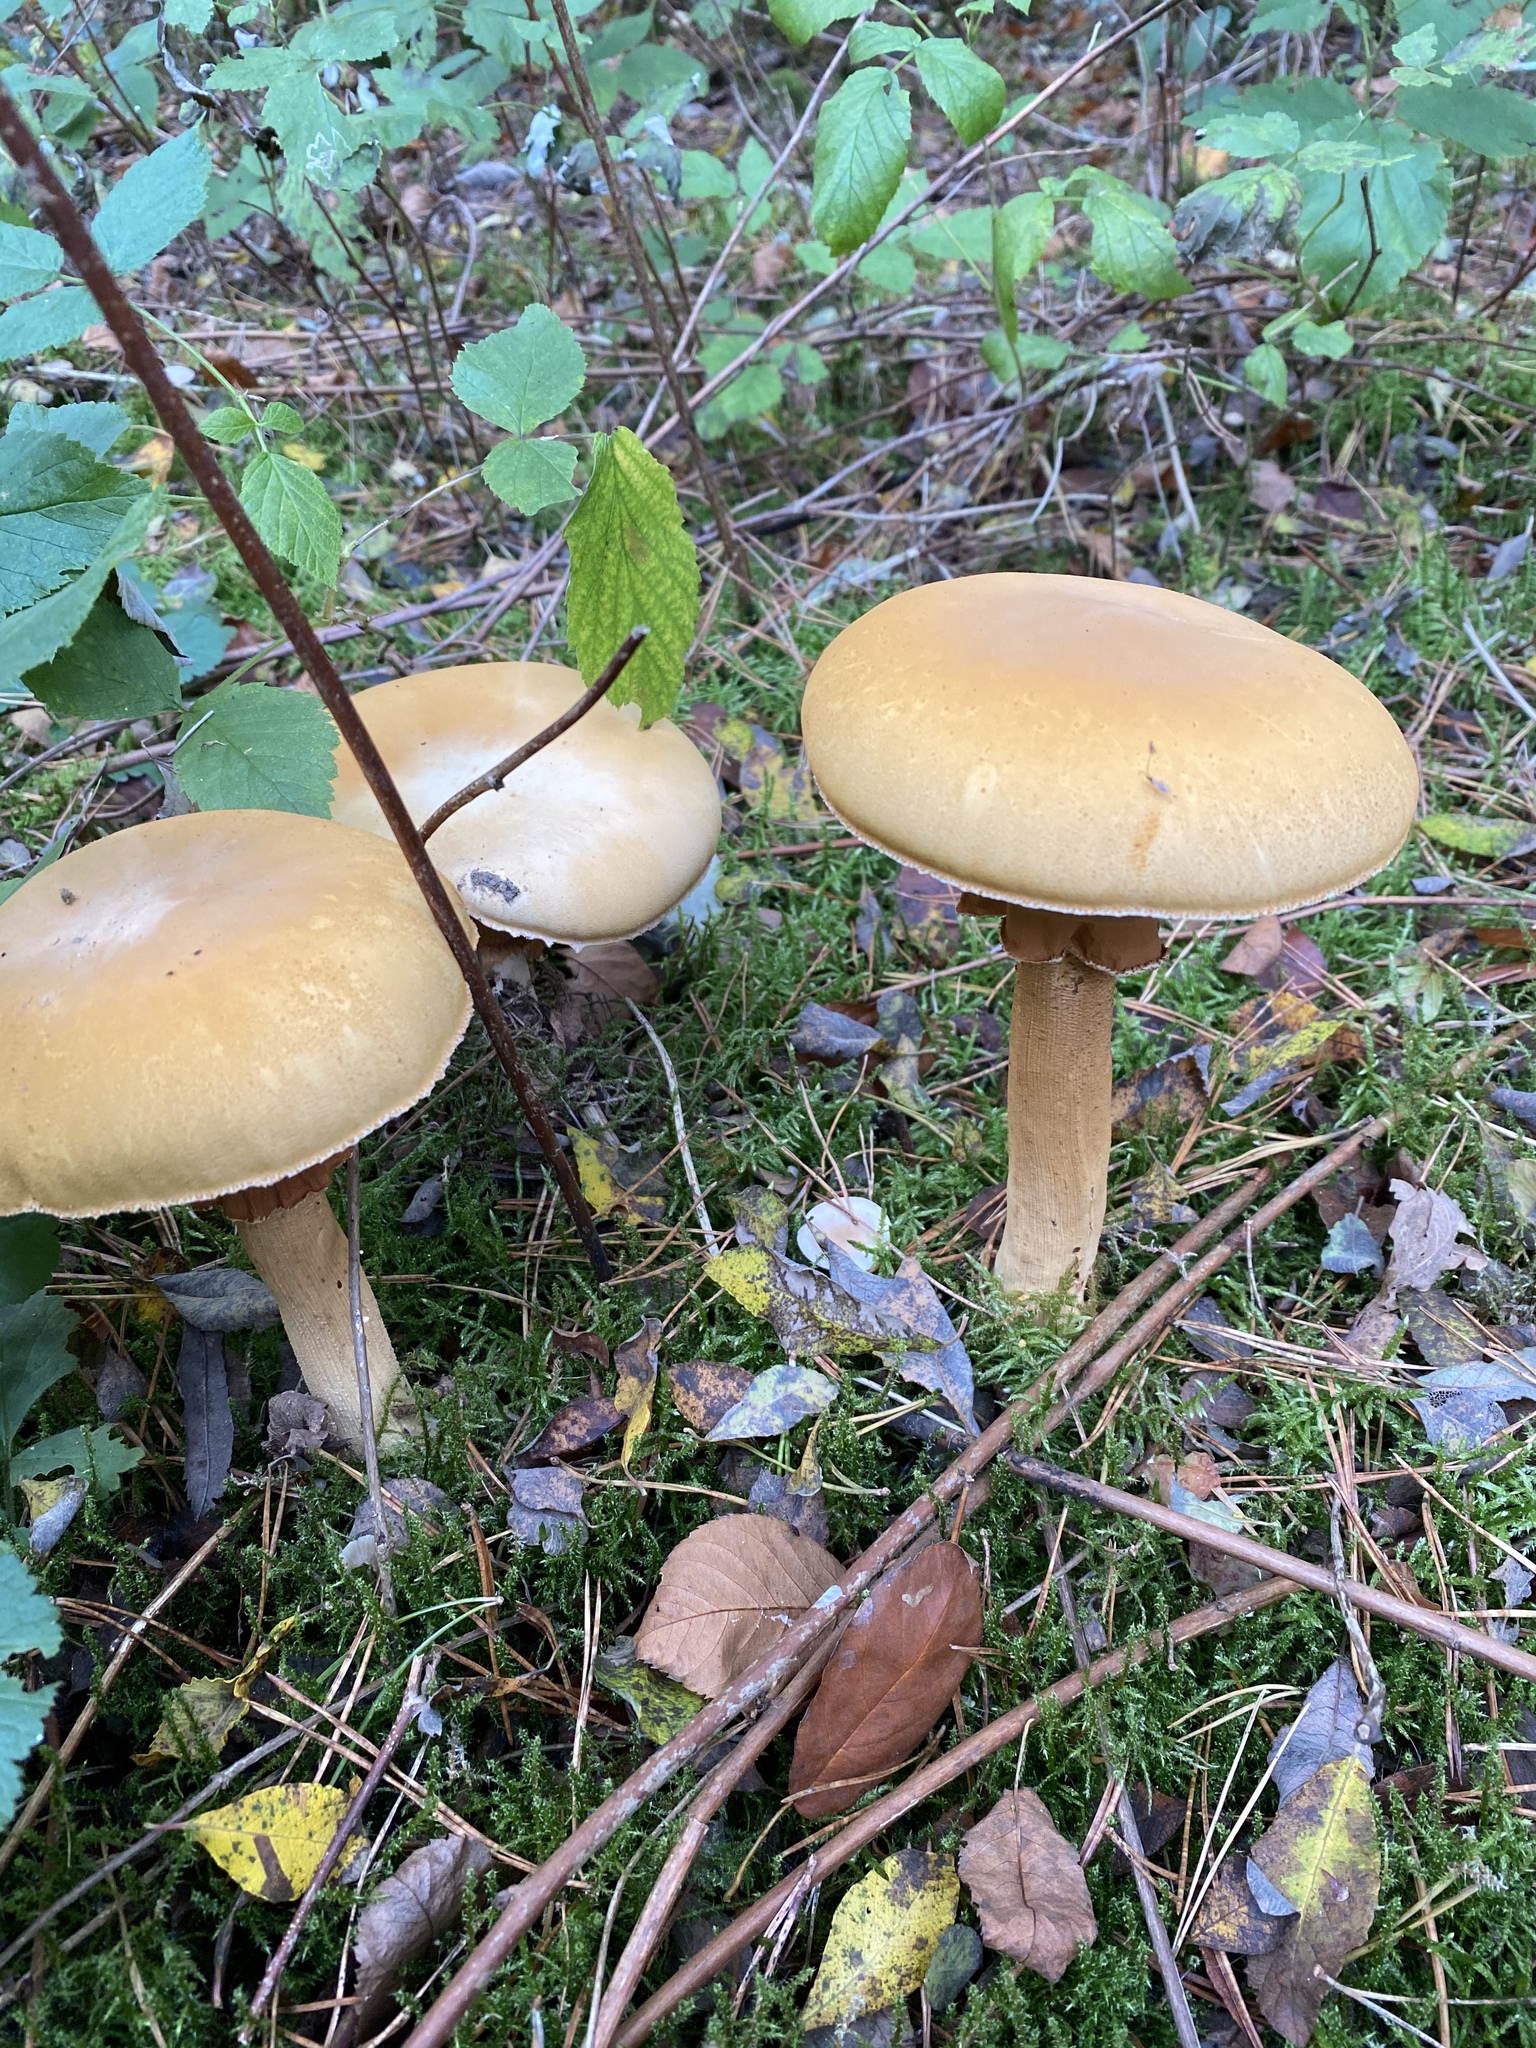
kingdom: Fungi
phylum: Basidiomycota
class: Agaricomycetes
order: Agaricales
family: Tricholomataceae
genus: Phaeolepiota
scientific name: Phaeolepiota aurea
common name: Golden bootleg
